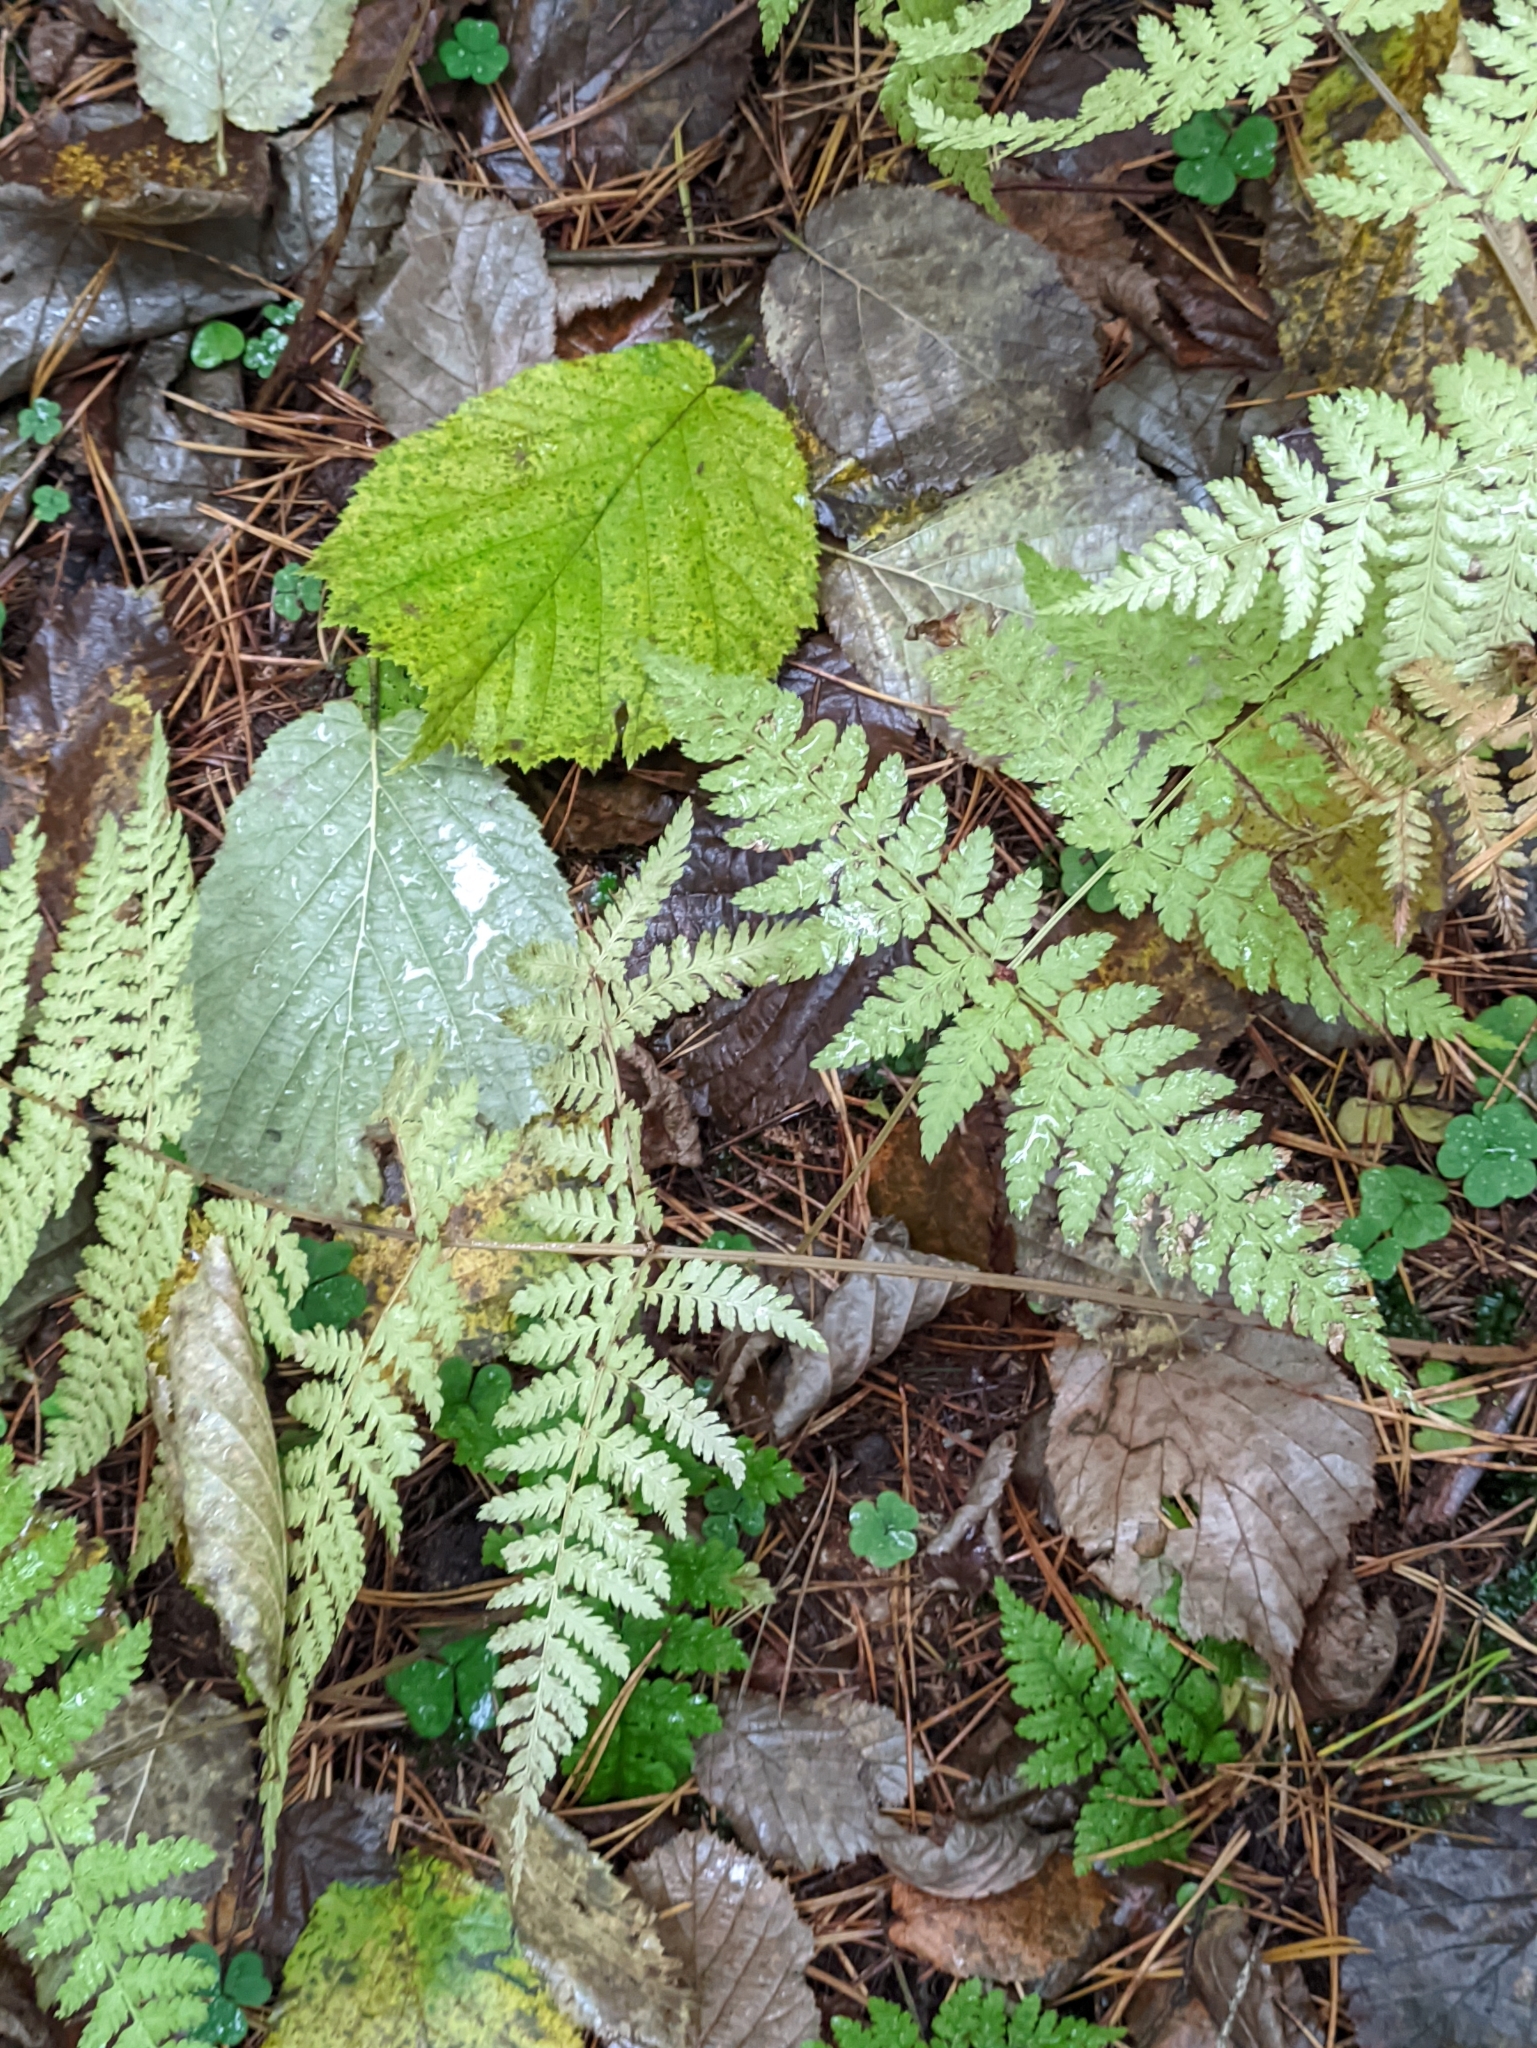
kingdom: Plantae
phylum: Tracheophyta
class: Polypodiopsida
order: Polypodiales
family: Athyriaceae
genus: Athyrium
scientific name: Athyrium filix-femina
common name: Lady fern
